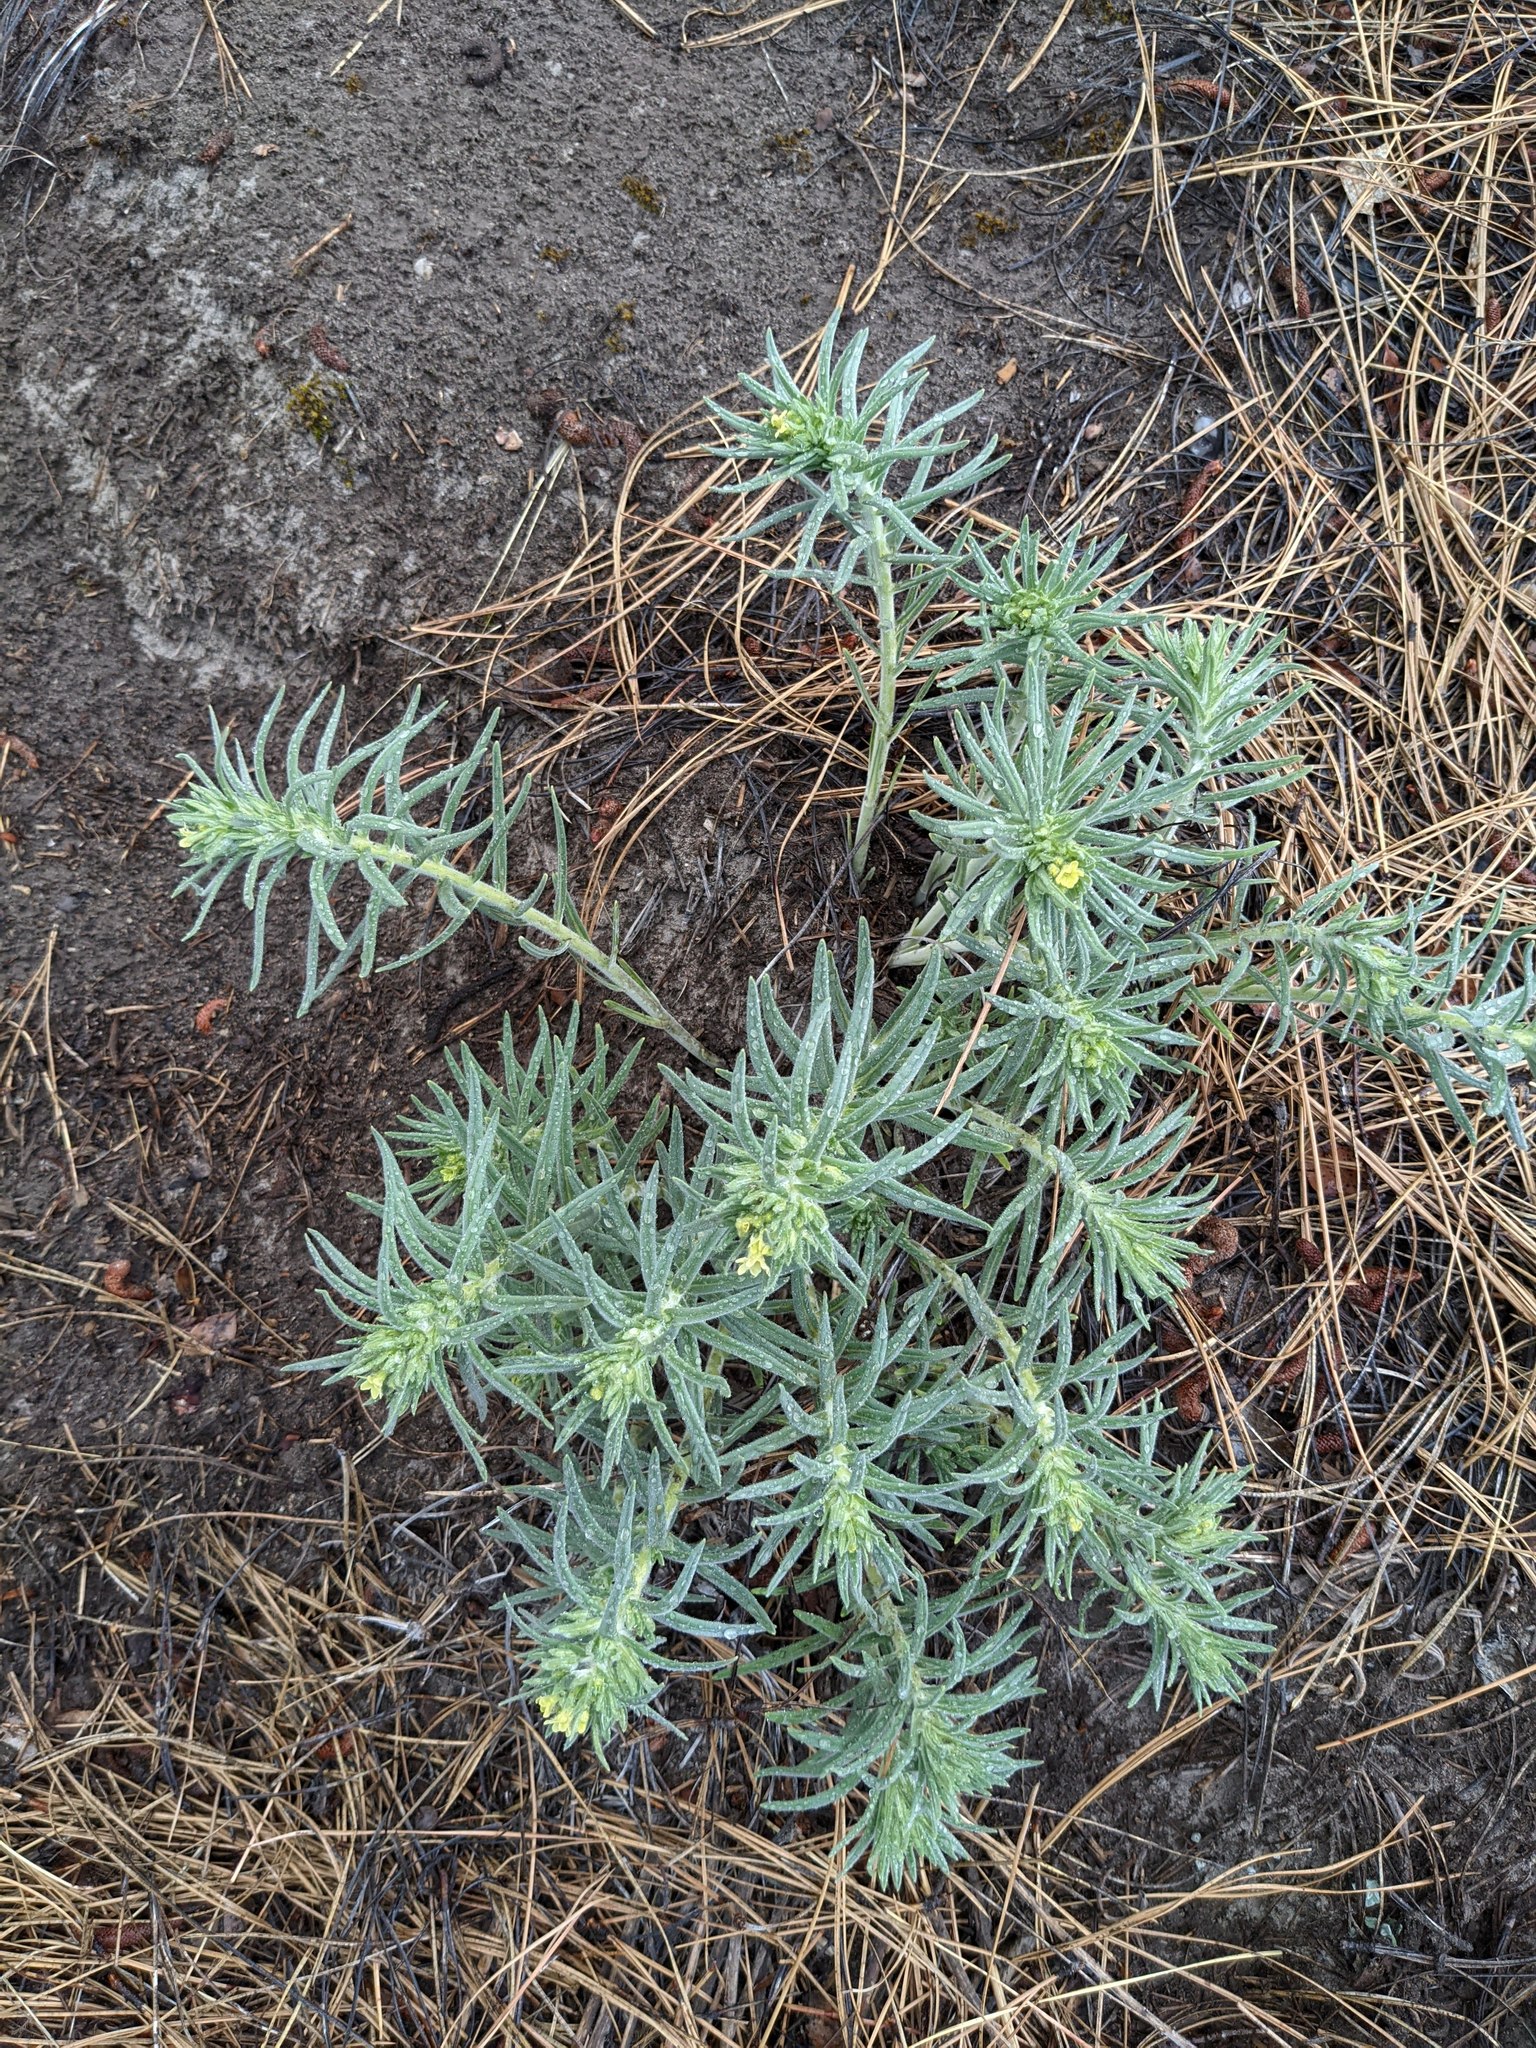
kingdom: Plantae
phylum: Tracheophyta
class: Magnoliopsida
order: Boraginales
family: Boraginaceae
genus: Lithospermum
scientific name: Lithospermum ruderale
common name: Western gromwell
